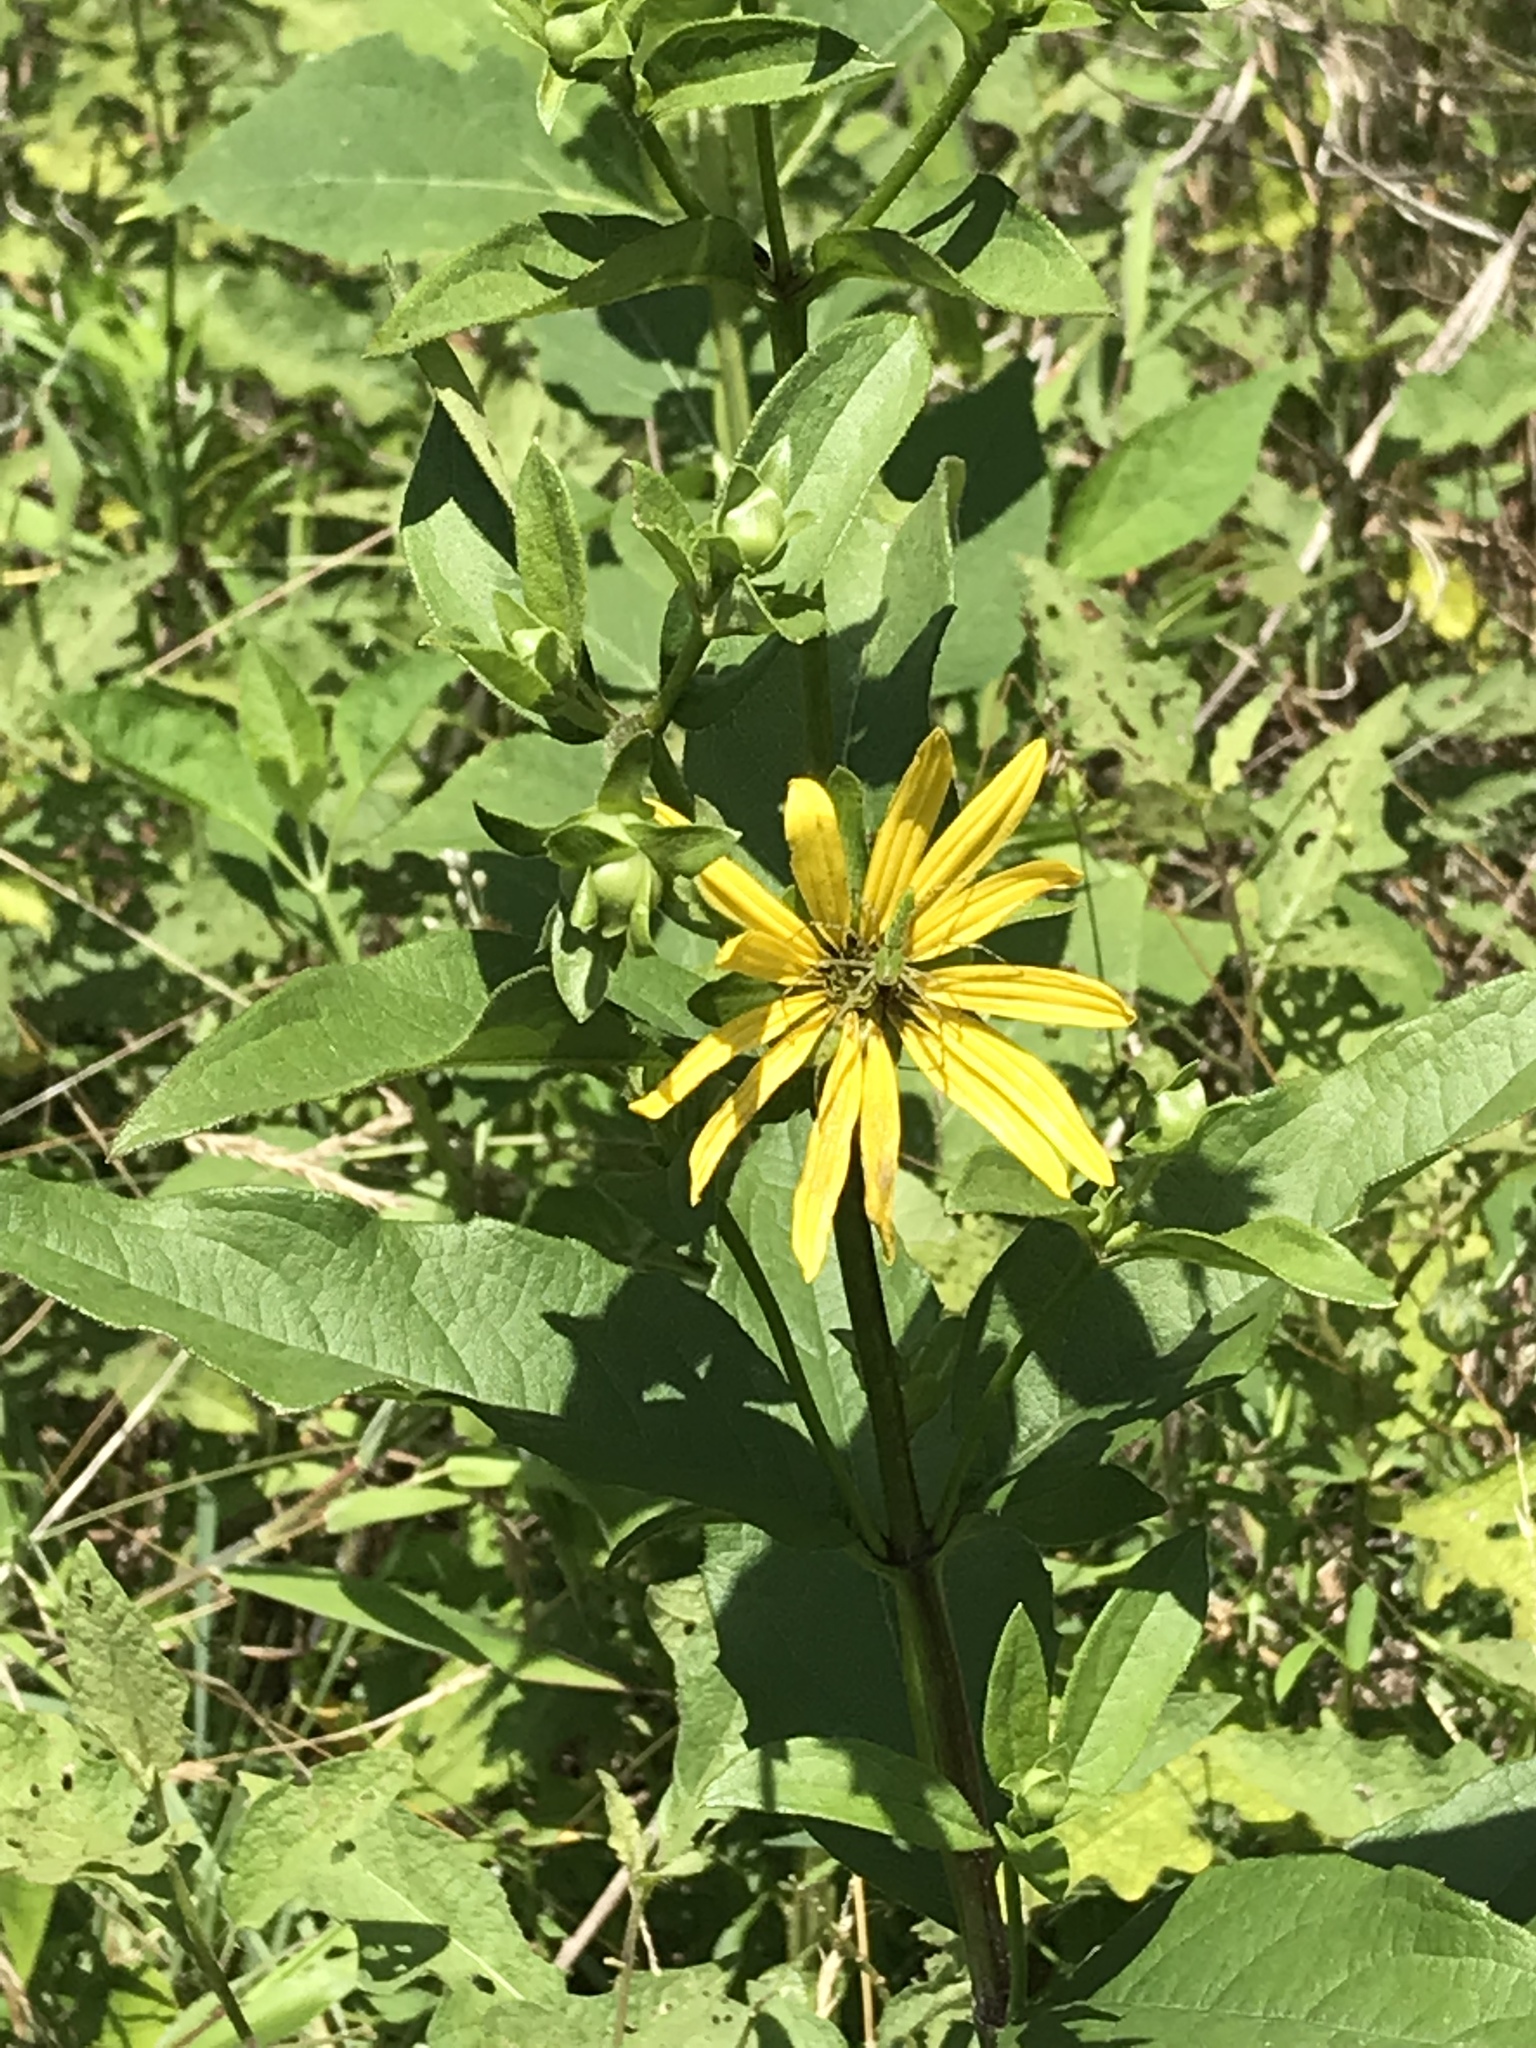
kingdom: Plantae
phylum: Tracheophyta
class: Magnoliopsida
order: Asterales
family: Asteraceae
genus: Silphium
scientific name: Silphium asteriscus
